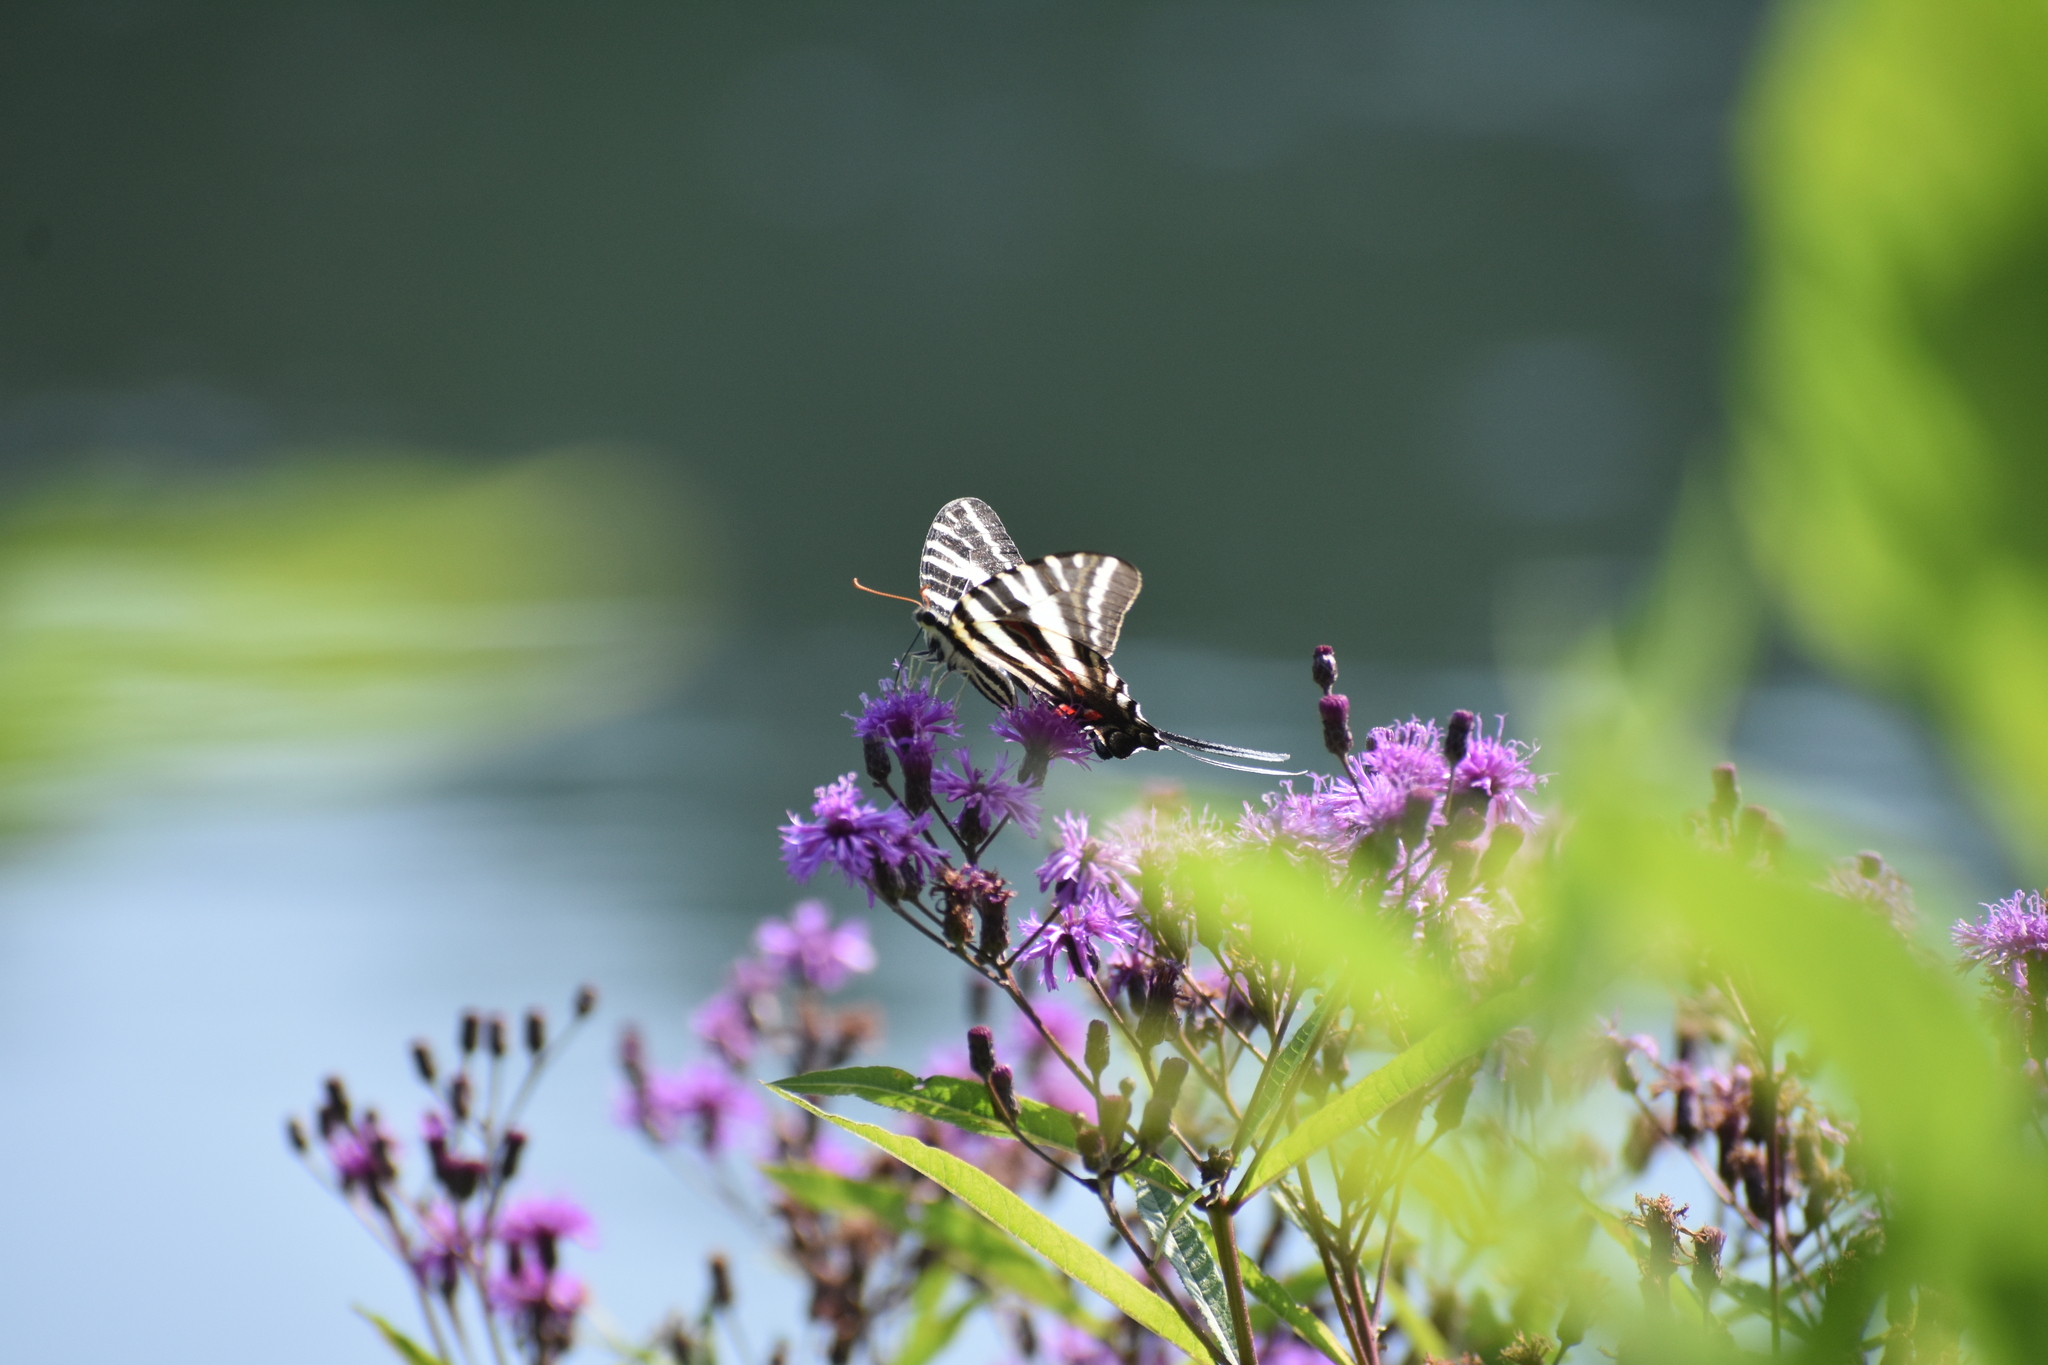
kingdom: Animalia
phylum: Arthropoda
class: Insecta
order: Lepidoptera
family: Papilionidae
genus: Protographium
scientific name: Protographium marcellus
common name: Zebra swallowtail
